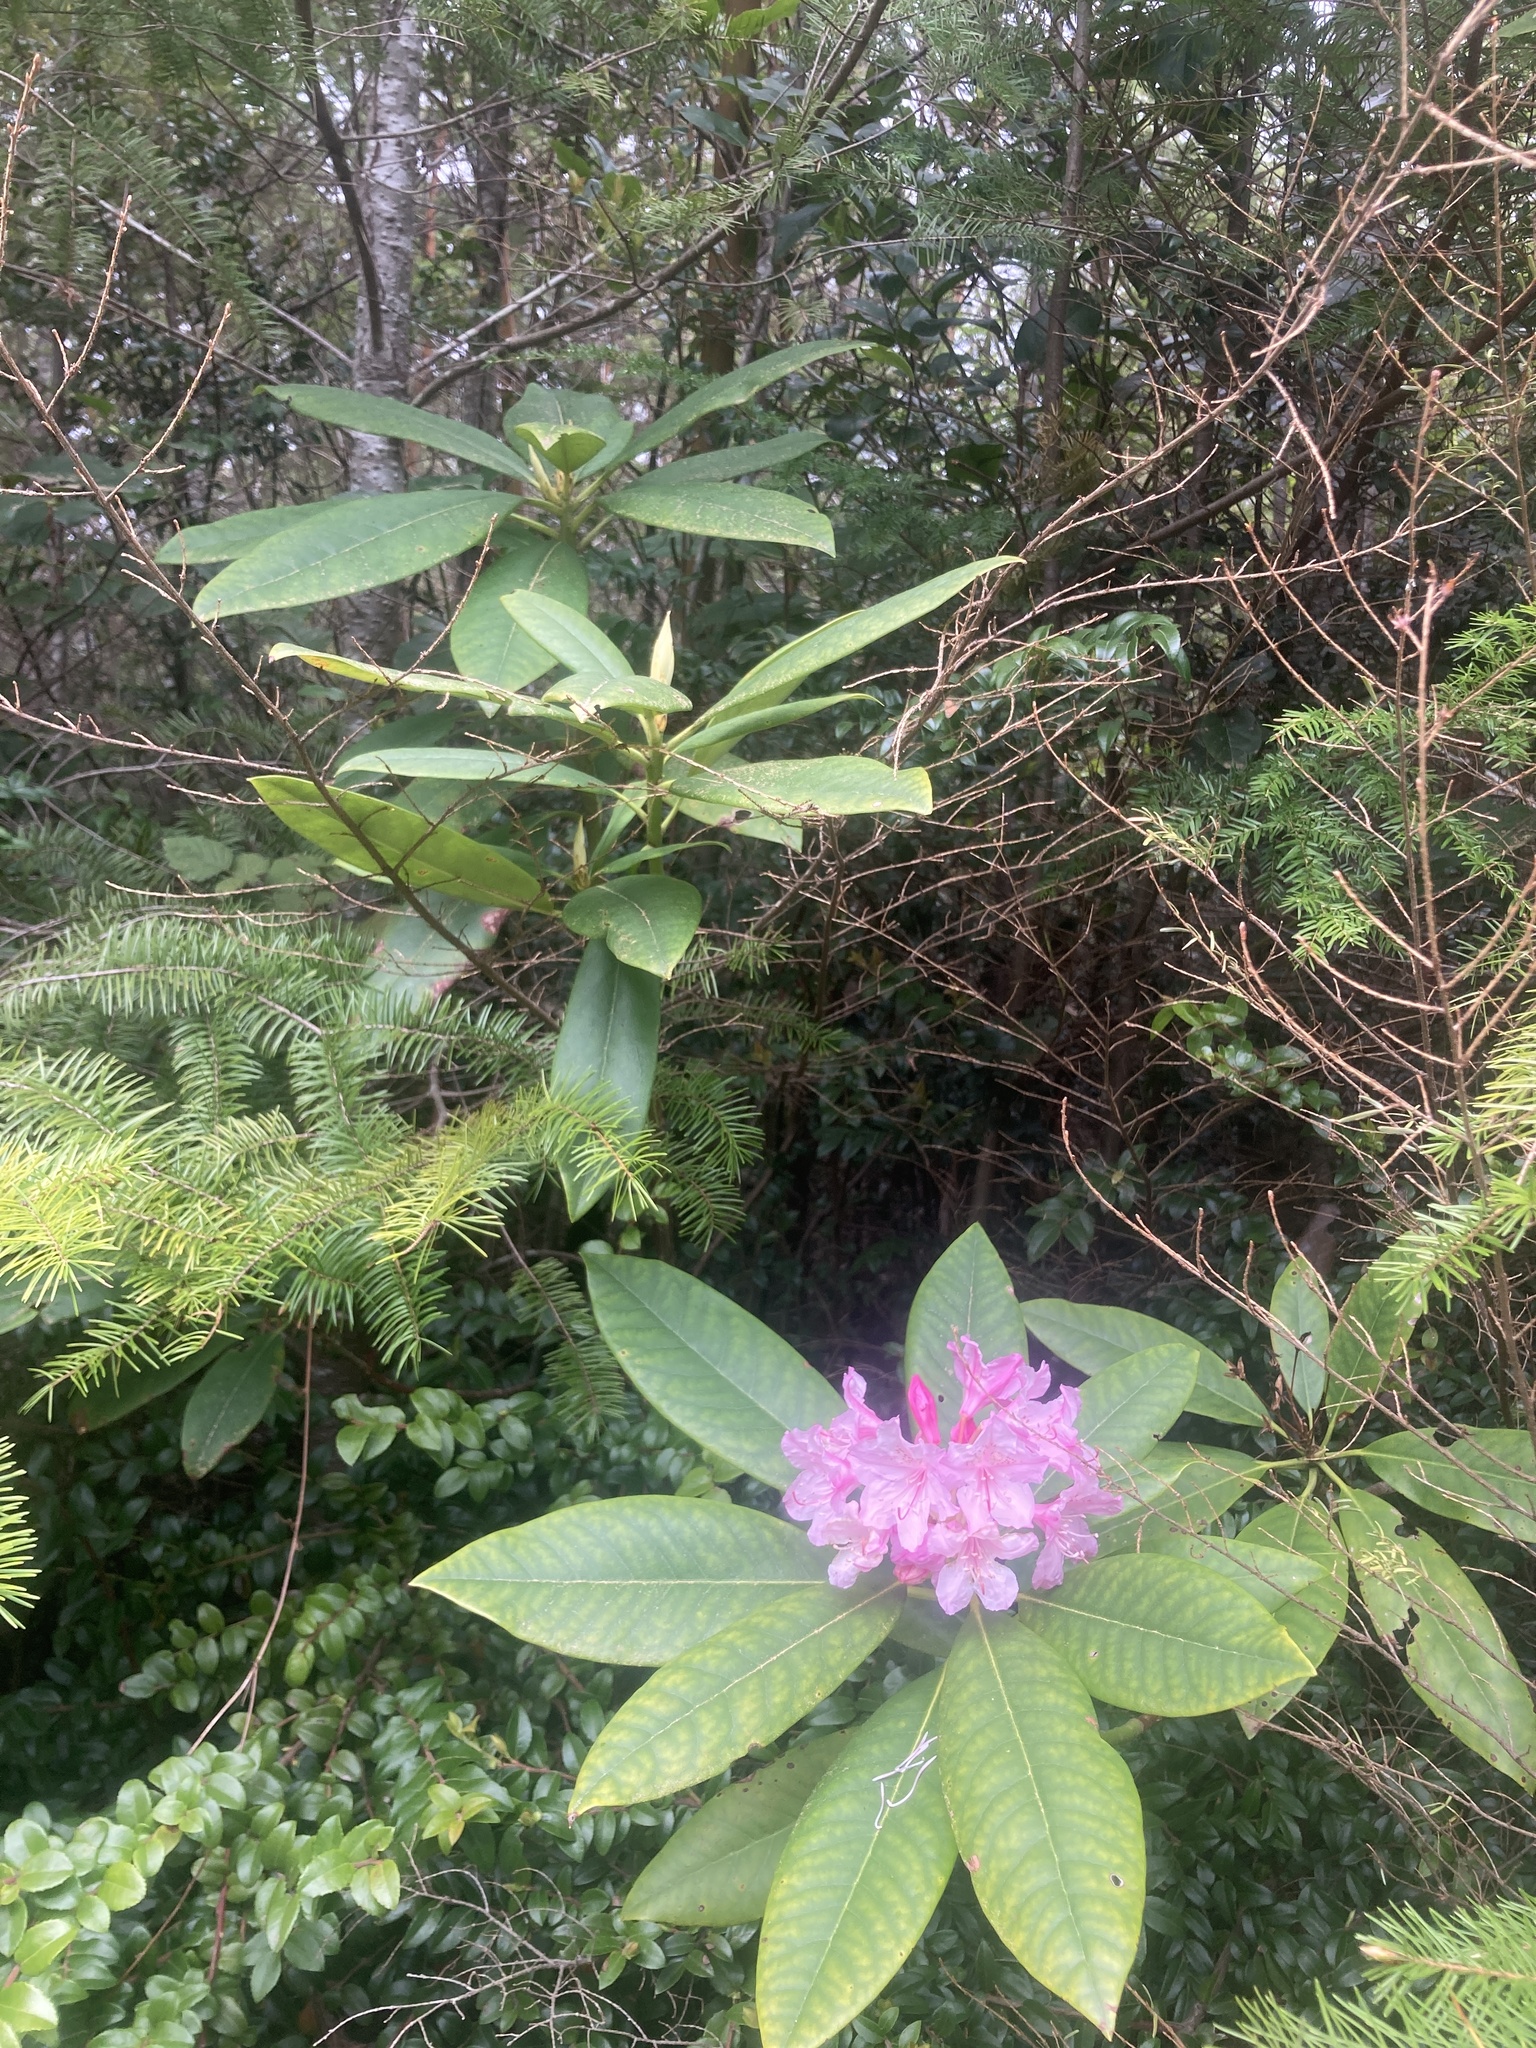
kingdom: Plantae
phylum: Tracheophyta
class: Magnoliopsida
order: Ericales
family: Ericaceae
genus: Rhododendron
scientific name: Rhododendron macrophyllum
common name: California rose bay
